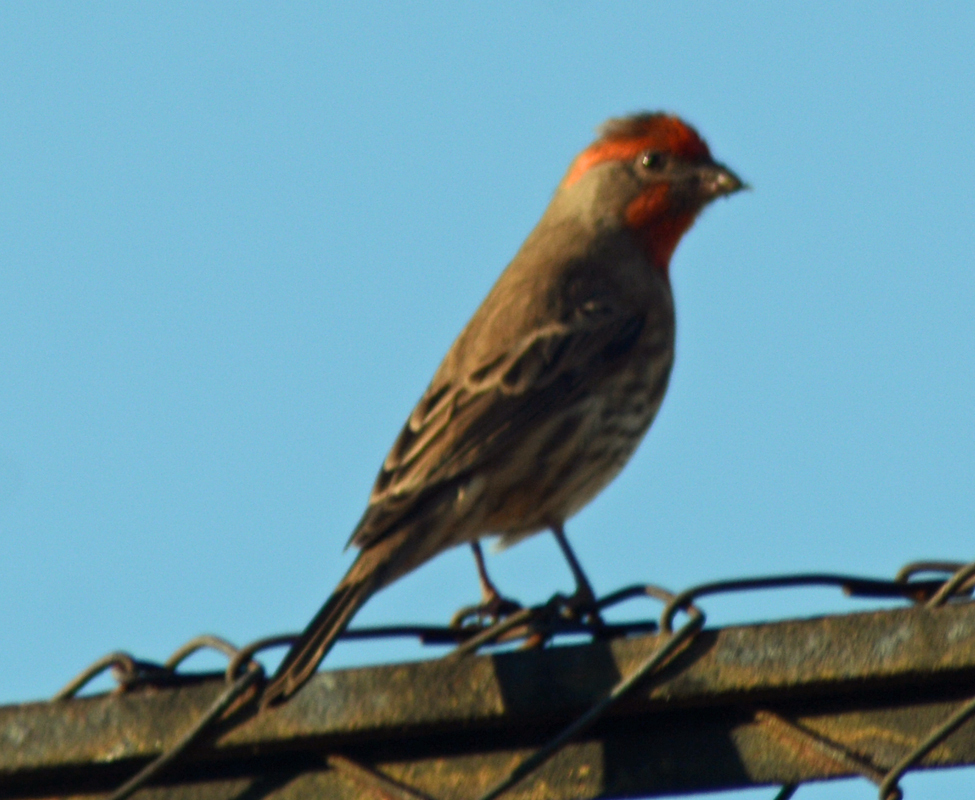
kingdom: Animalia
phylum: Chordata
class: Aves
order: Passeriformes
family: Fringillidae
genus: Haemorhous
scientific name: Haemorhous mexicanus
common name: House finch
